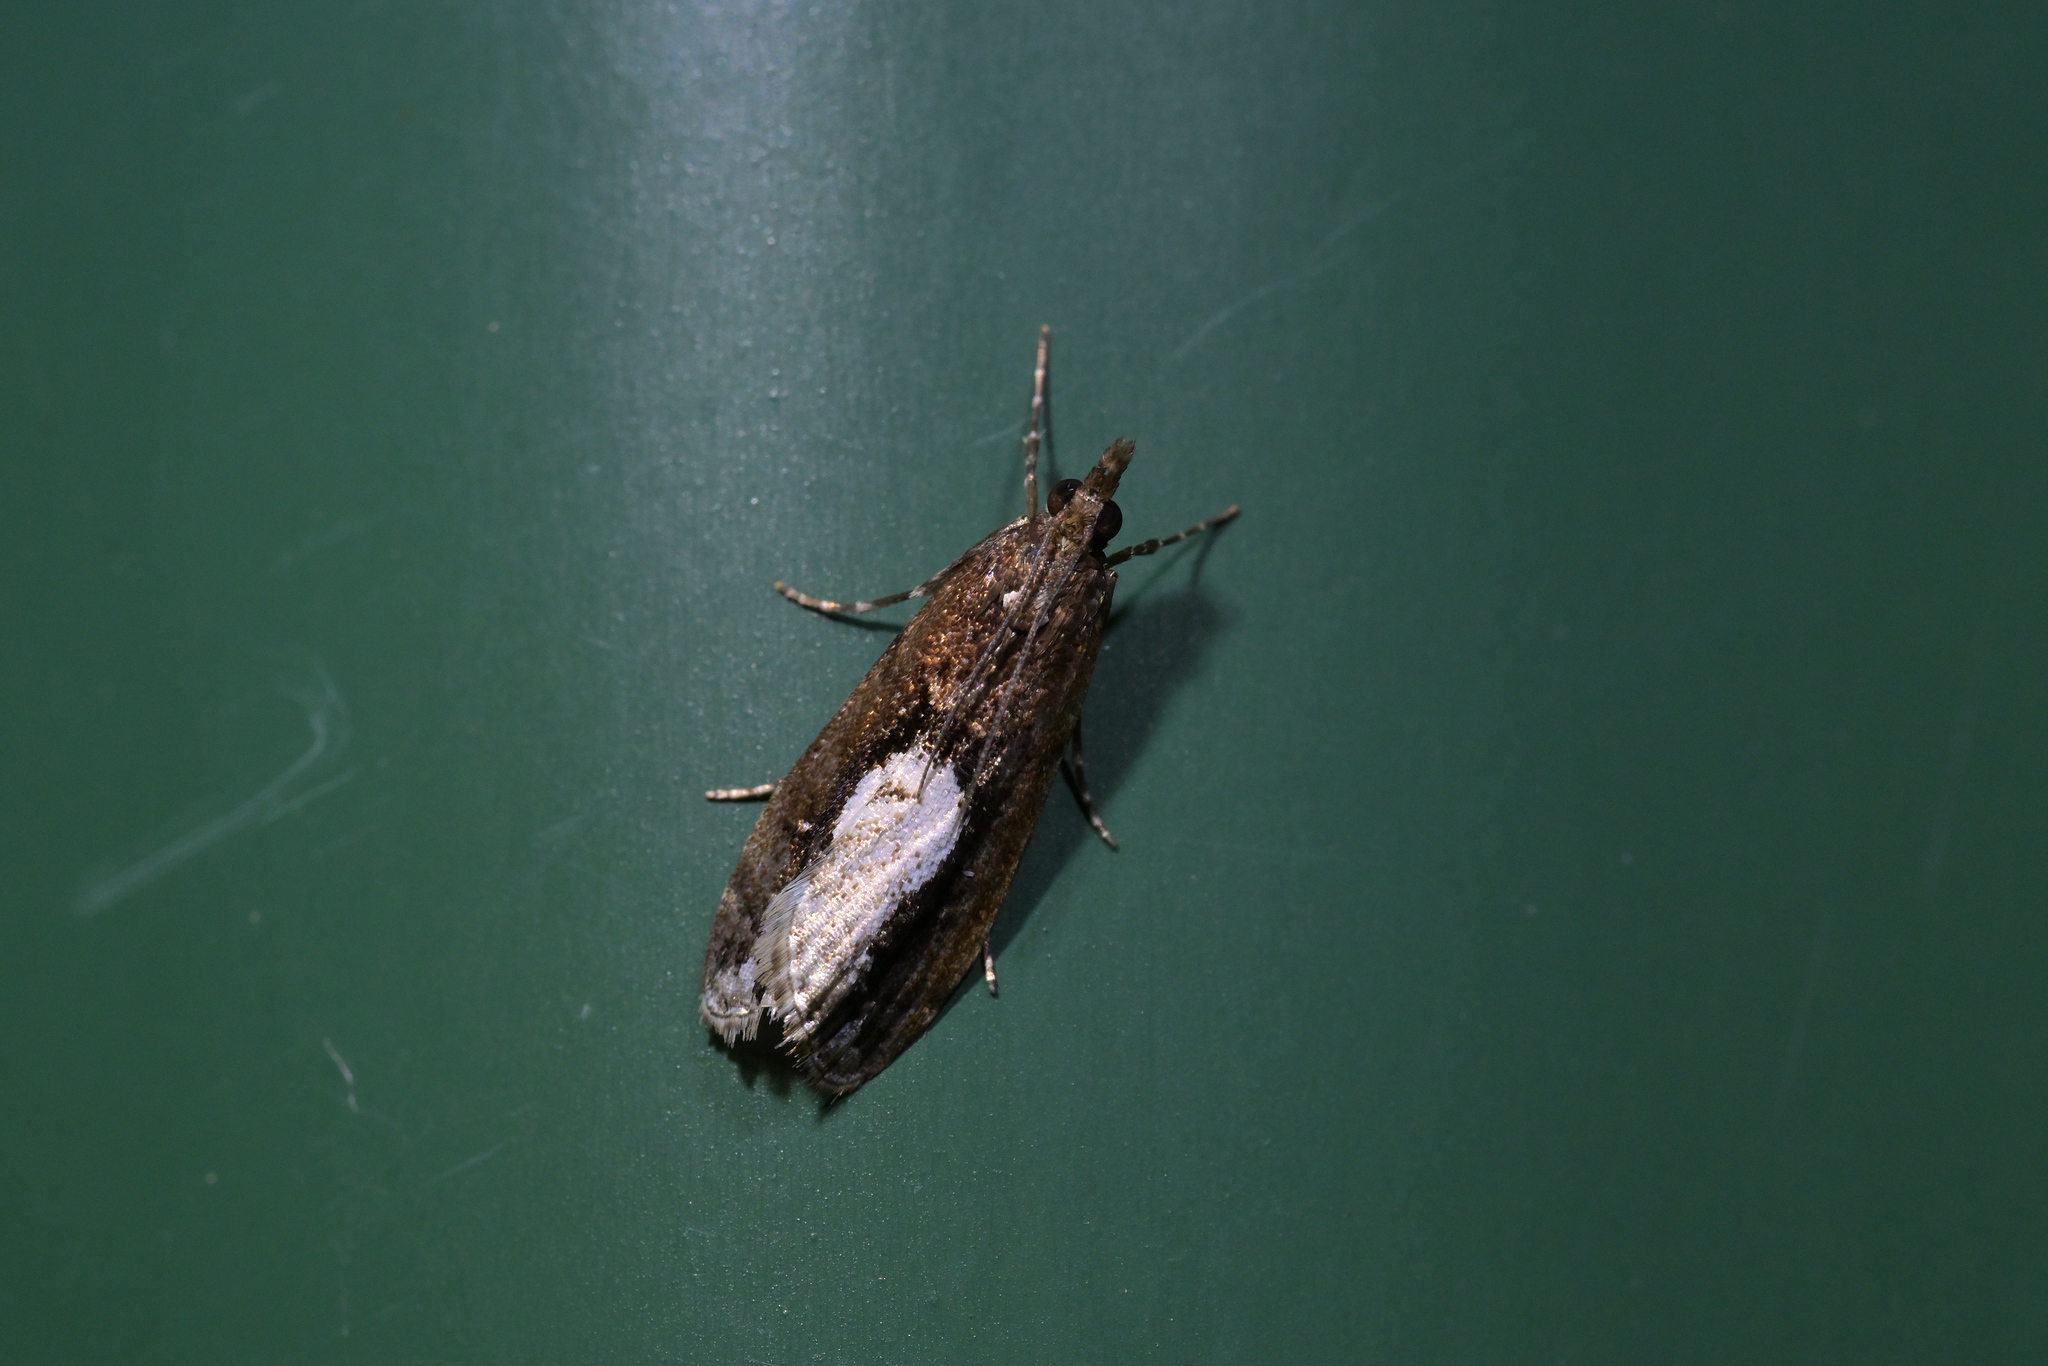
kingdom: Animalia
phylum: Arthropoda
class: Insecta
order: Lepidoptera
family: Crambidae
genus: Eudonia
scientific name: Eudonia hemiplaca
